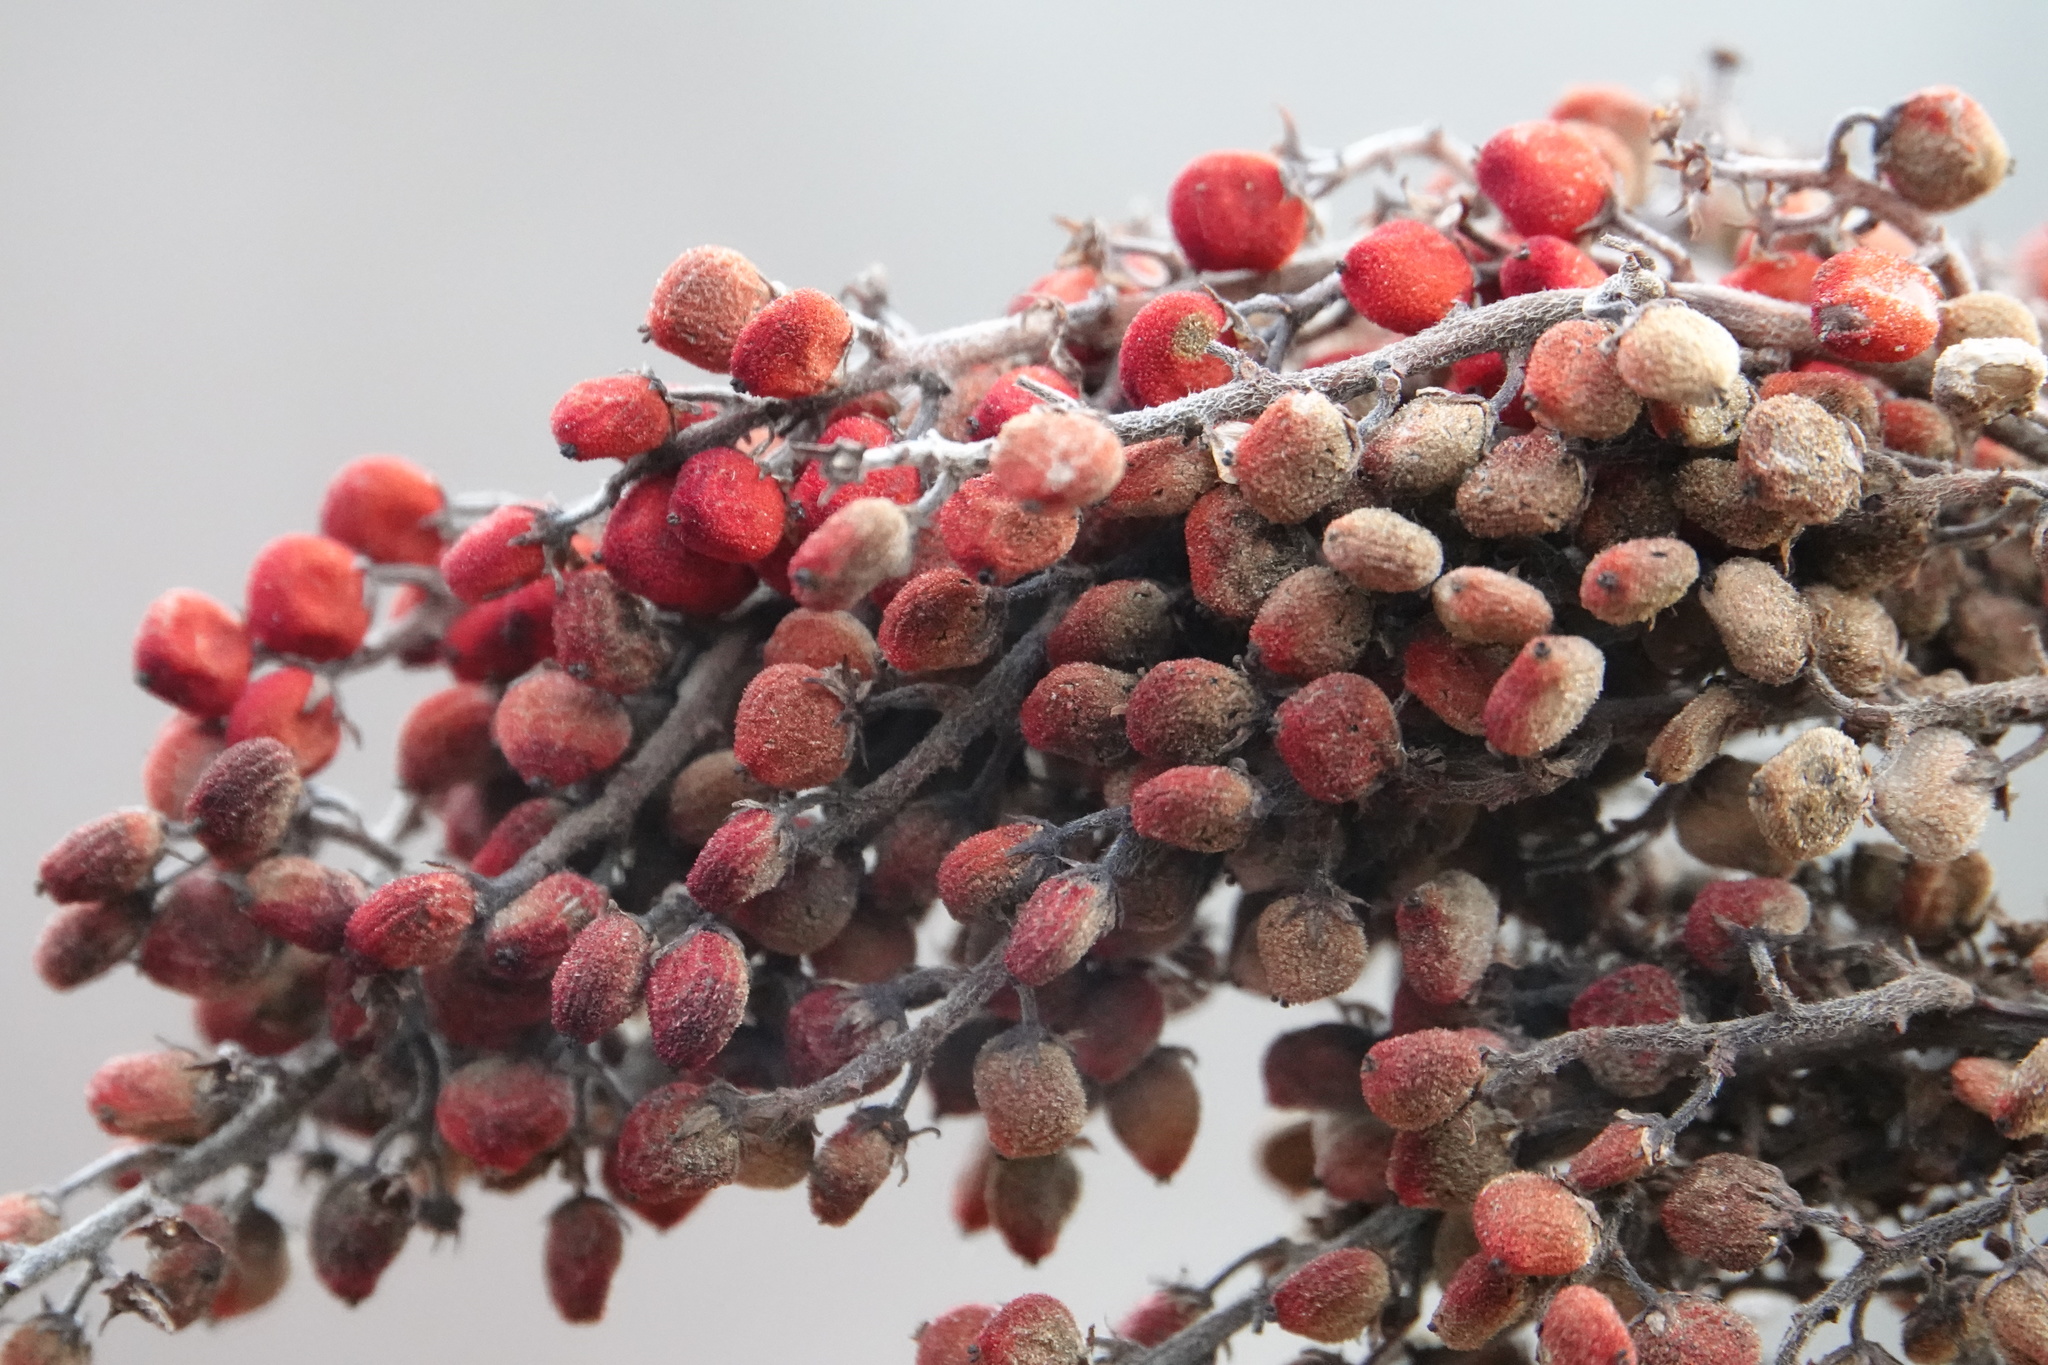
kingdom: Plantae
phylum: Tracheophyta
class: Magnoliopsida
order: Sapindales
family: Anacardiaceae
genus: Rhus
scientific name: Rhus glabra
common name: Scarlet sumac
